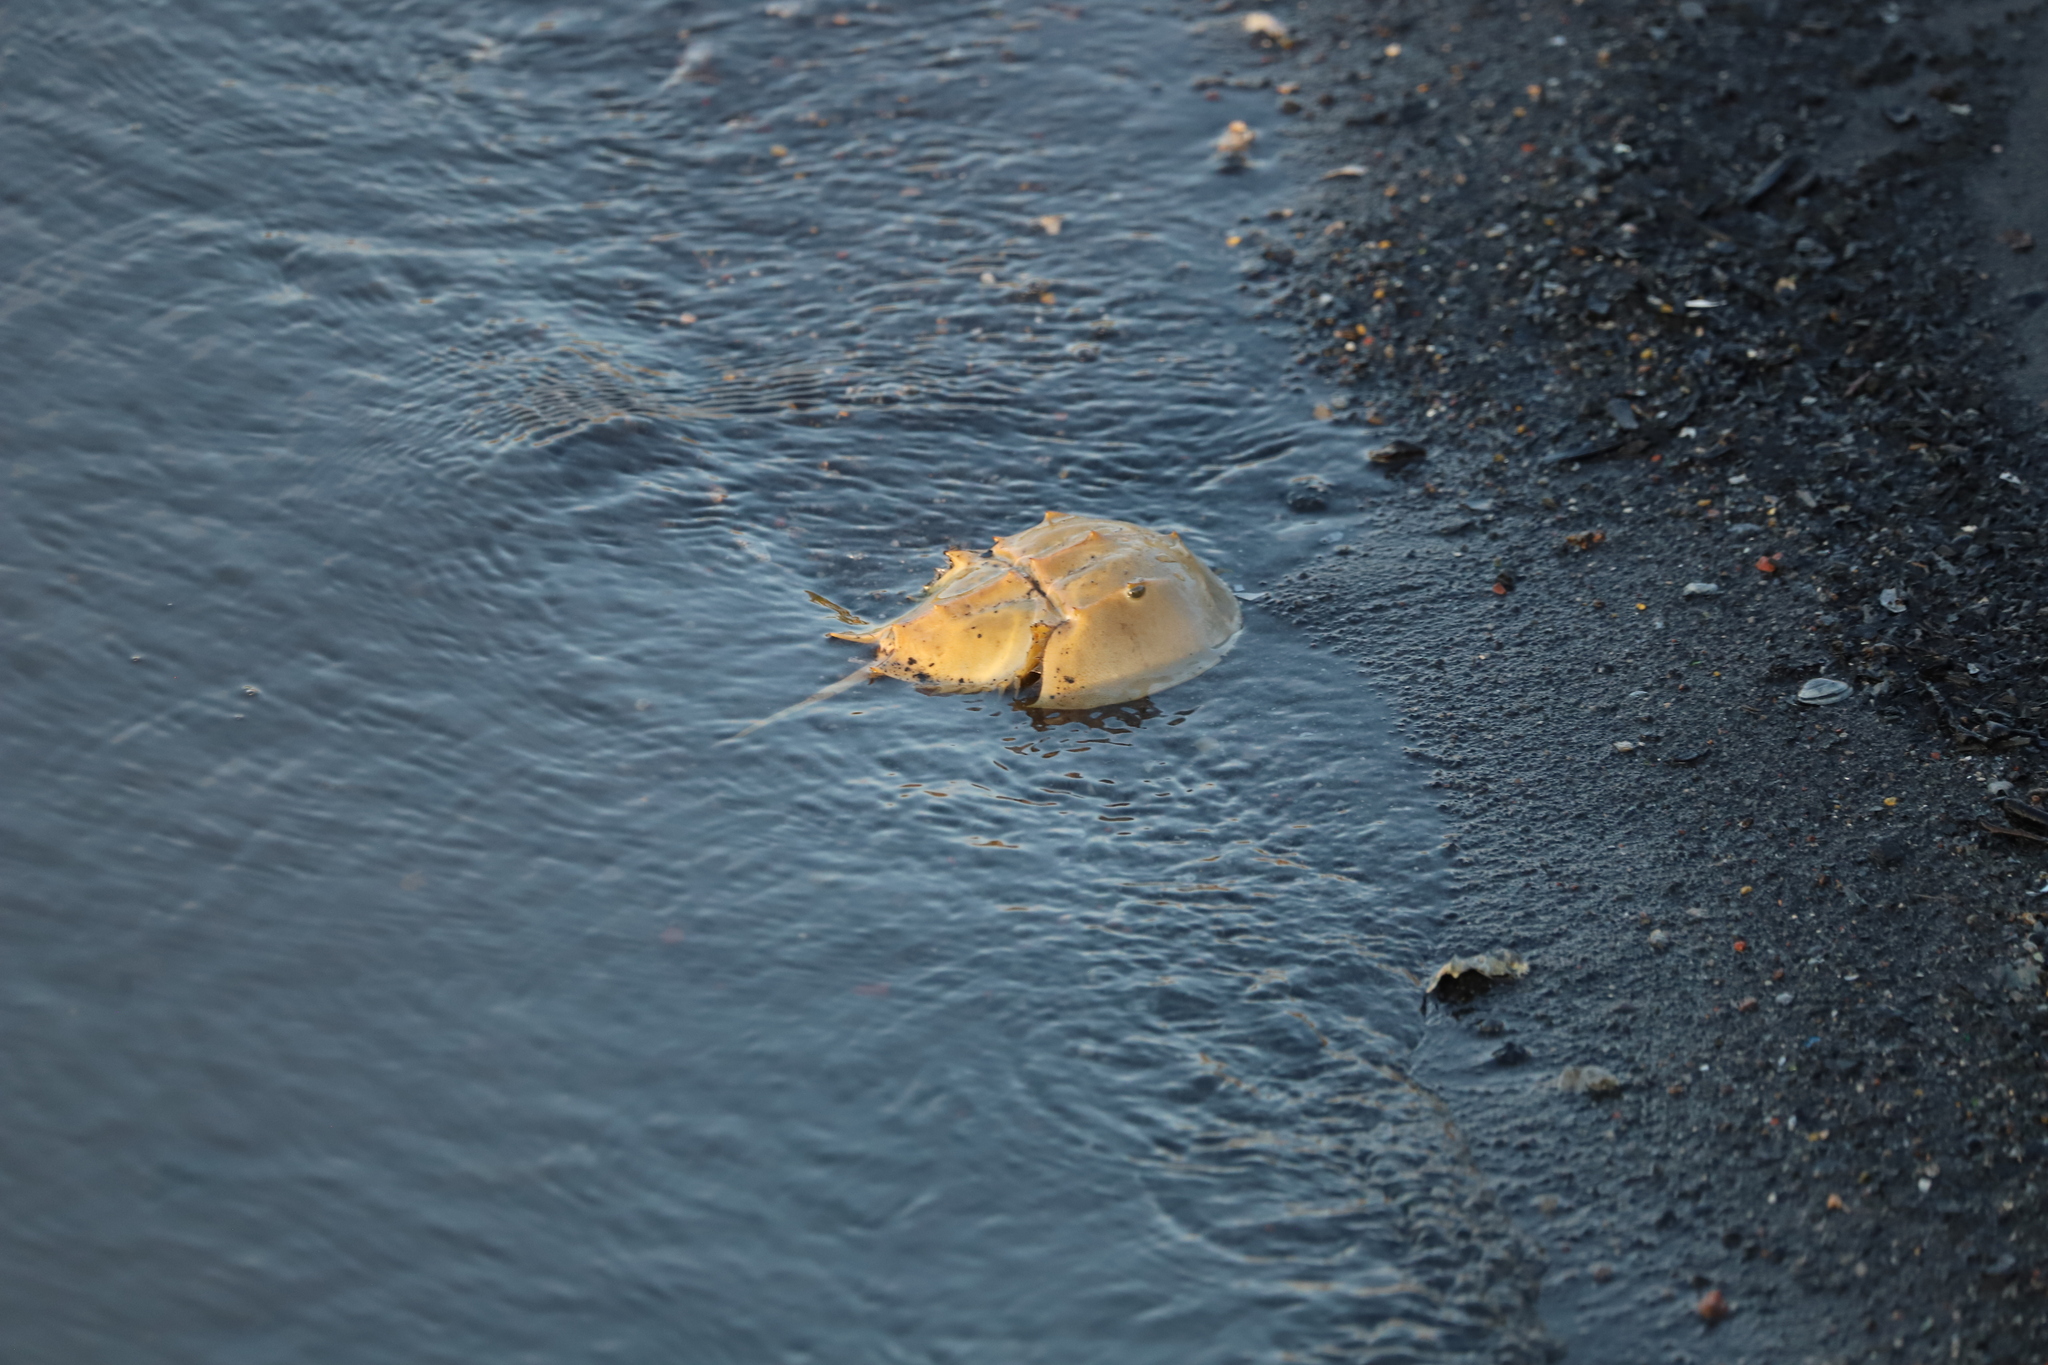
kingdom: Animalia
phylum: Arthropoda
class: Merostomata
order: Xiphosurida
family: Limulidae
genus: Limulus
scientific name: Limulus polyphemus
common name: Horseshoe crab
